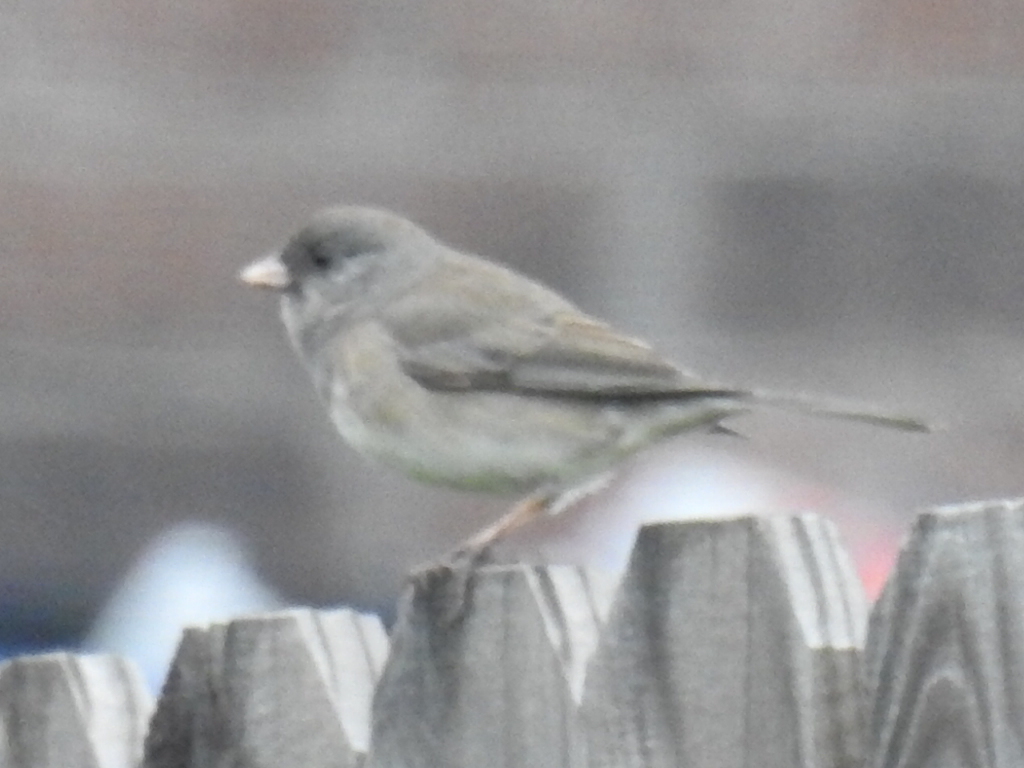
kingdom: Animalia
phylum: Chordata
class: Aves
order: Passeriformes
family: Passerellidae
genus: Junco
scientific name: Junco hyemalis
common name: Dark-eyed junco
